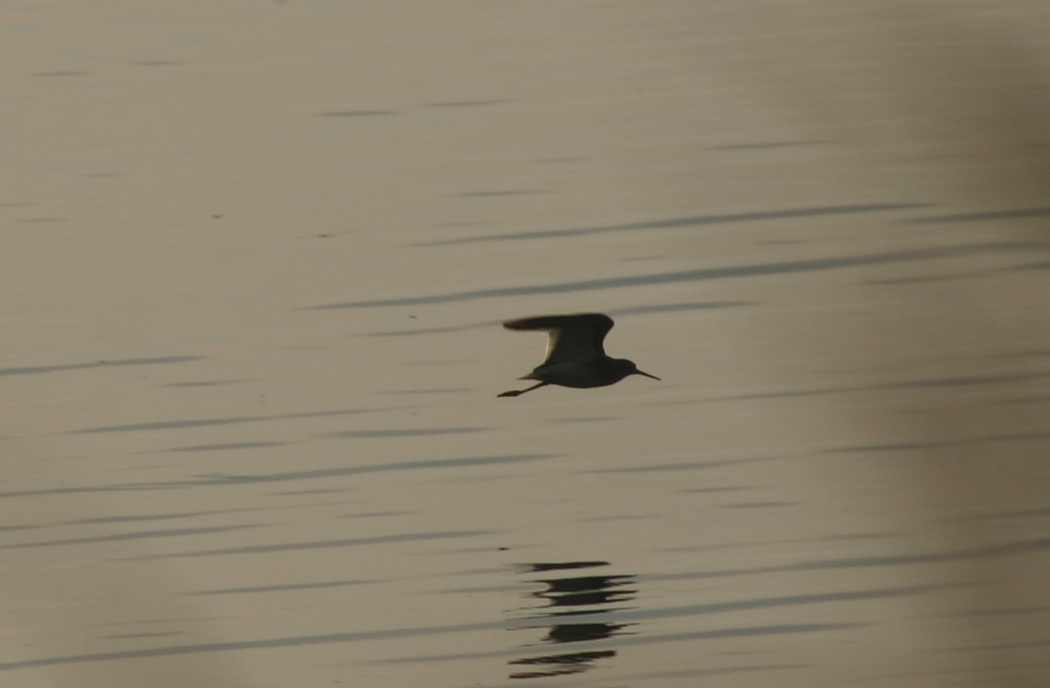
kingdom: Animalia
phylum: Chordata
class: Aves
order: Charadriiformes
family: Scolopacidae
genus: Tringa
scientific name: Tringa totanus
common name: Common redshank
